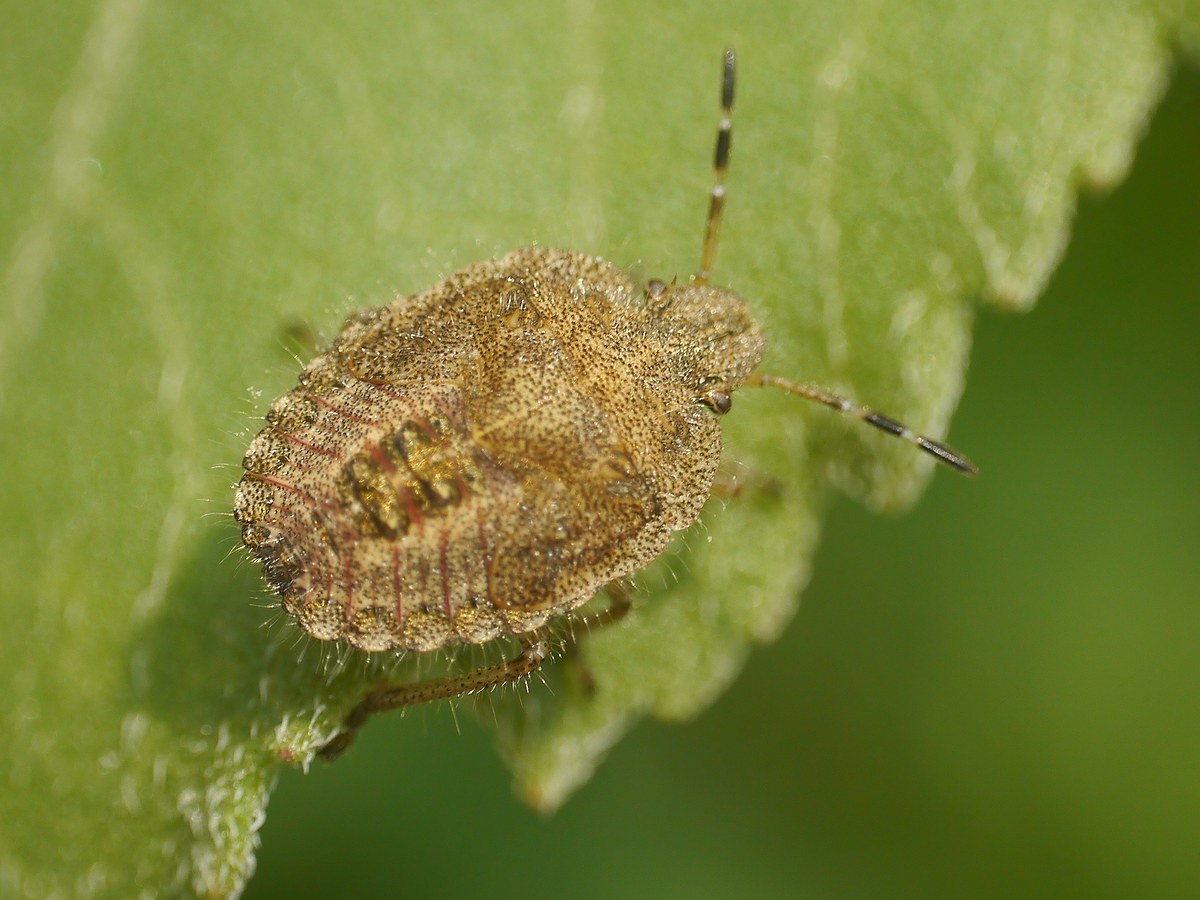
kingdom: Animalia
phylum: Arthropoda
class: Insecta
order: Hemiptera
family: Pentatomidae
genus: Dolycoris
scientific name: Dolycoris baccarum
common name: Sloe bug
